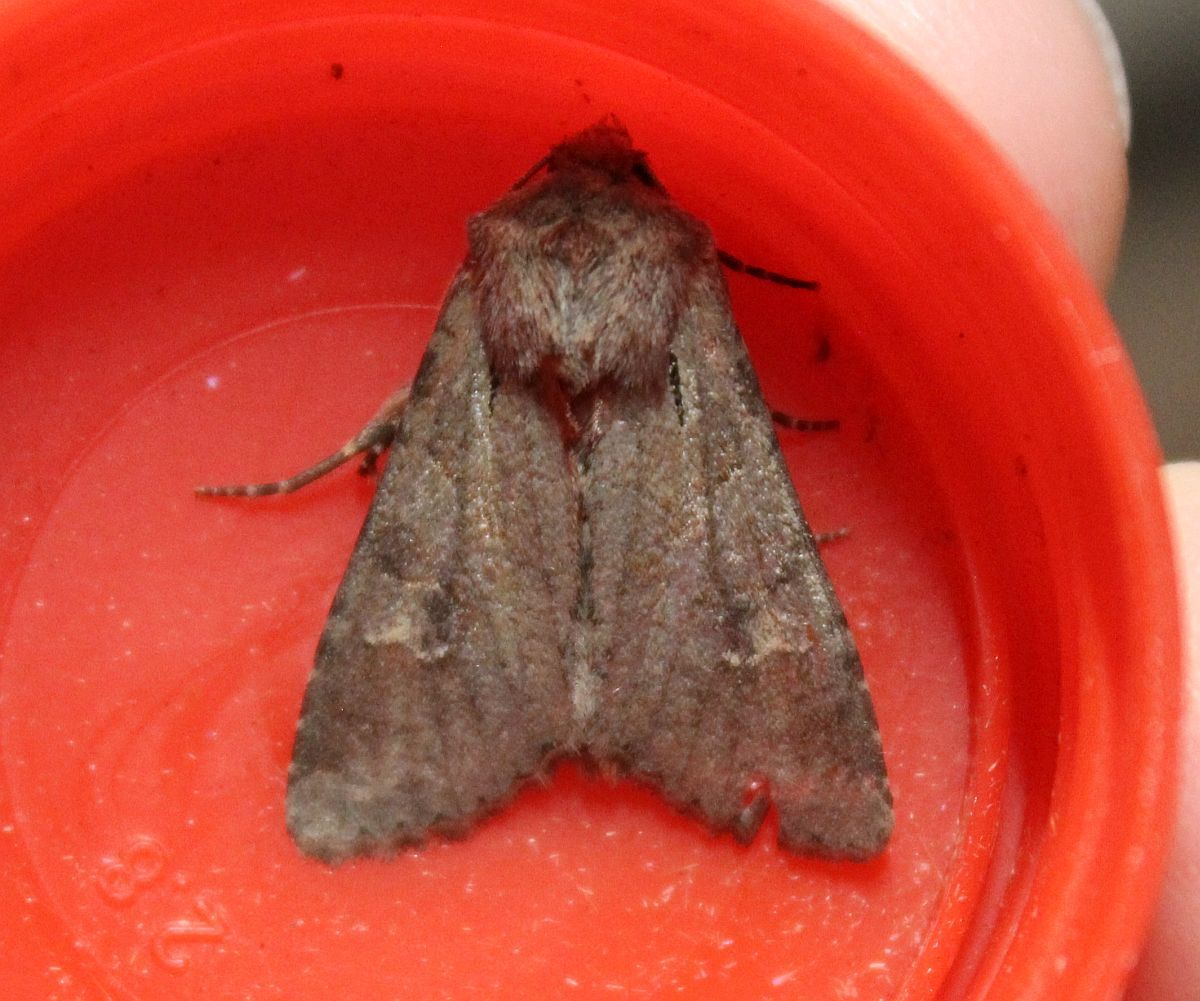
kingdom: Animalia
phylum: Arthropoda
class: Insecta
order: Lepidoptera
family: Noctuidae
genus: Apamea
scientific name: Apamea sordens
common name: Rustic shoulder-knot
